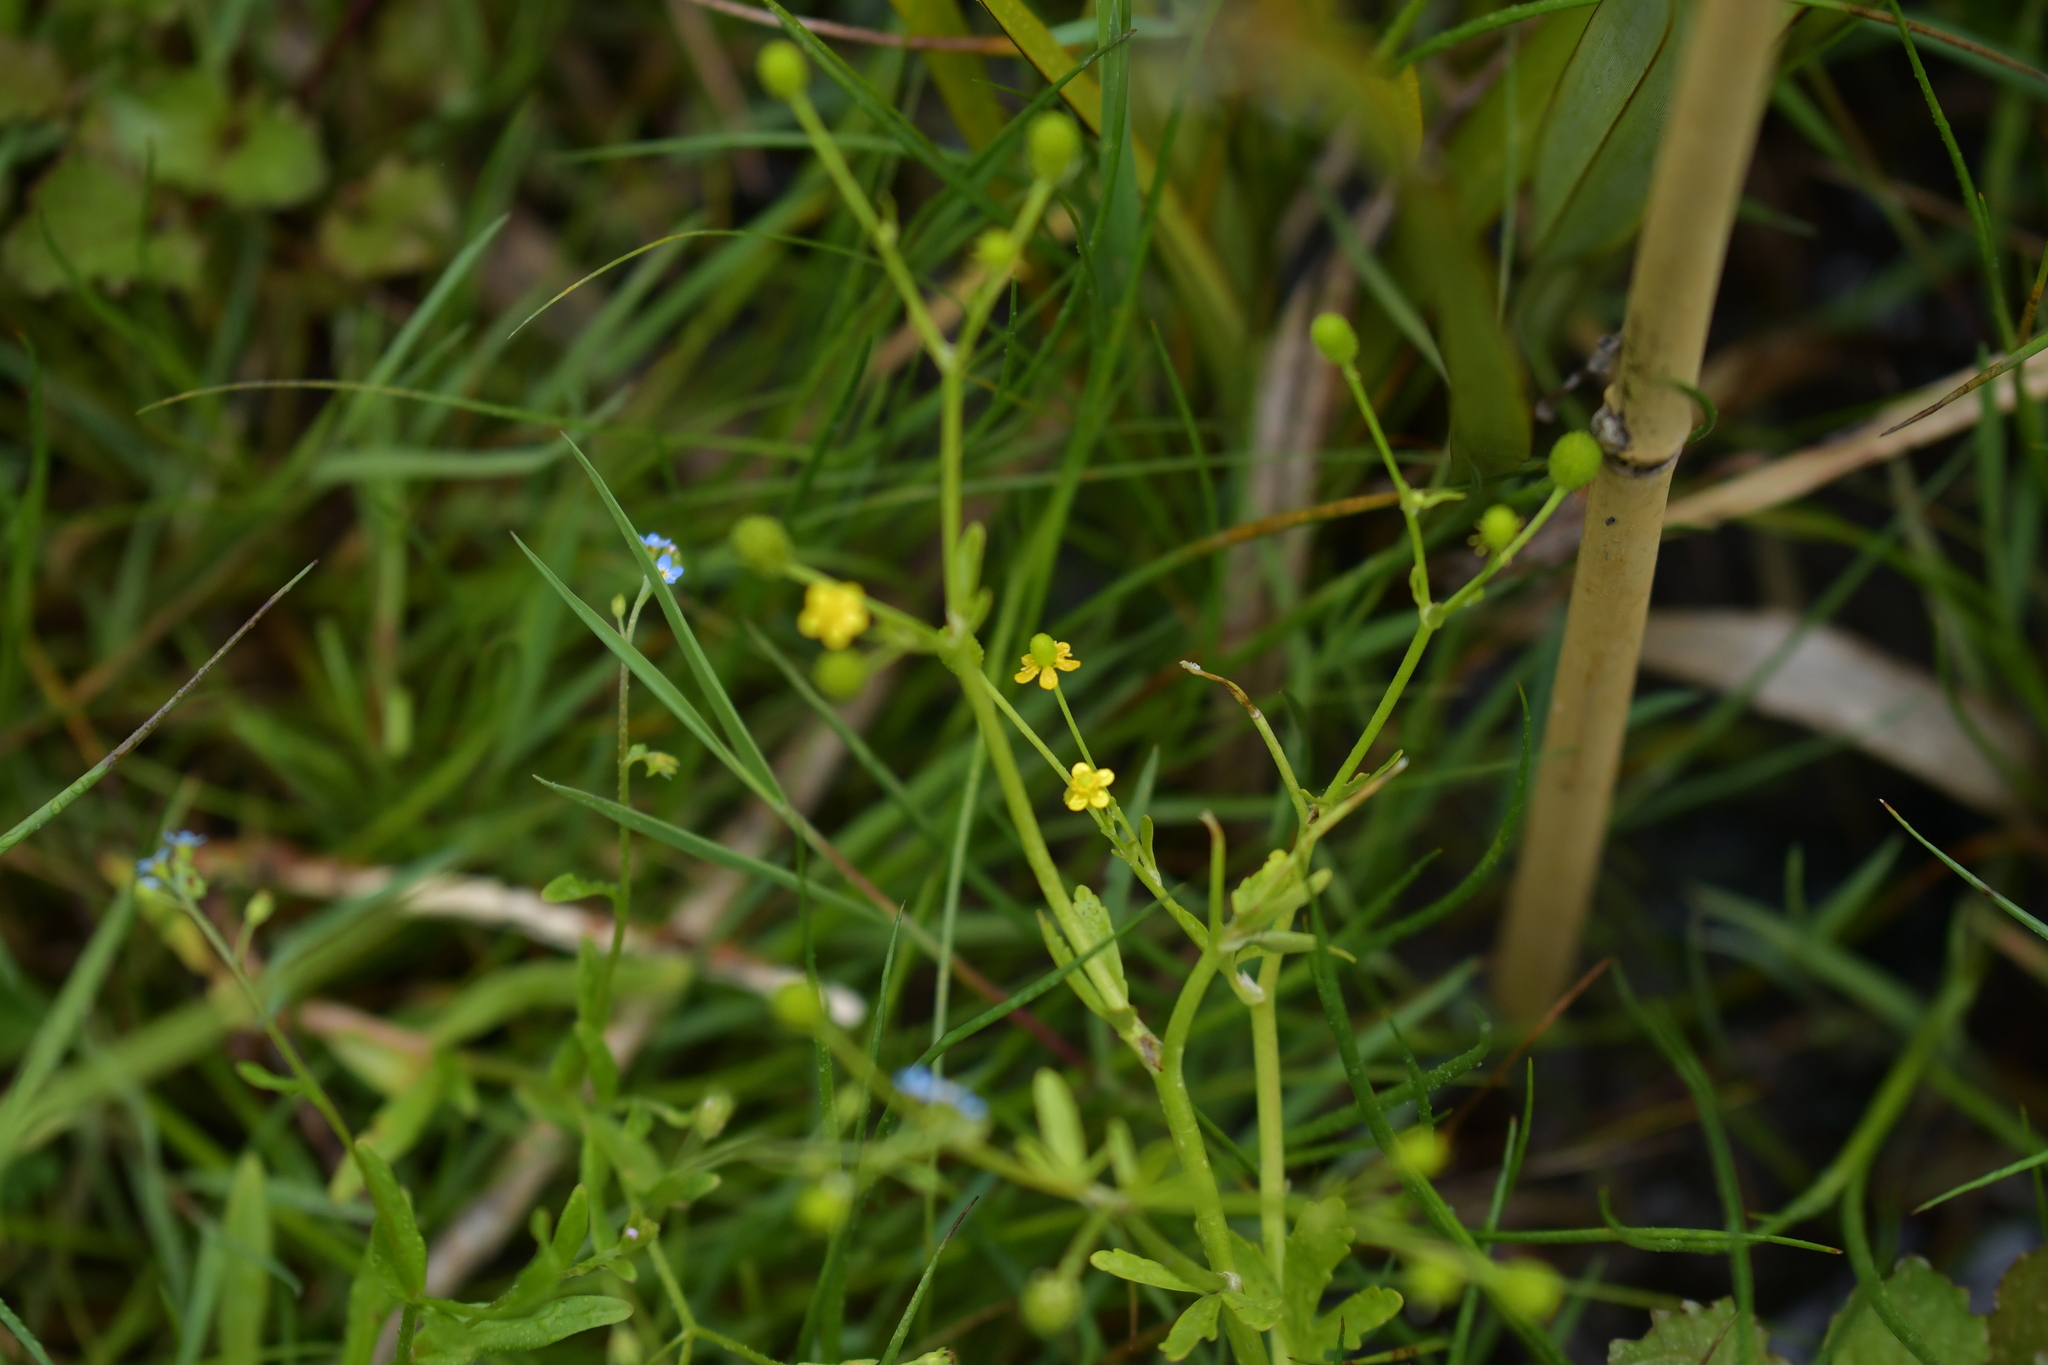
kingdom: Plantae
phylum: Tracheophyta
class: Magnoliopsida
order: Ranunculales
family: Ranunculaceae
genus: Ranunculus
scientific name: Ranunculus sceleratus
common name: Celery-leaved buttercup
